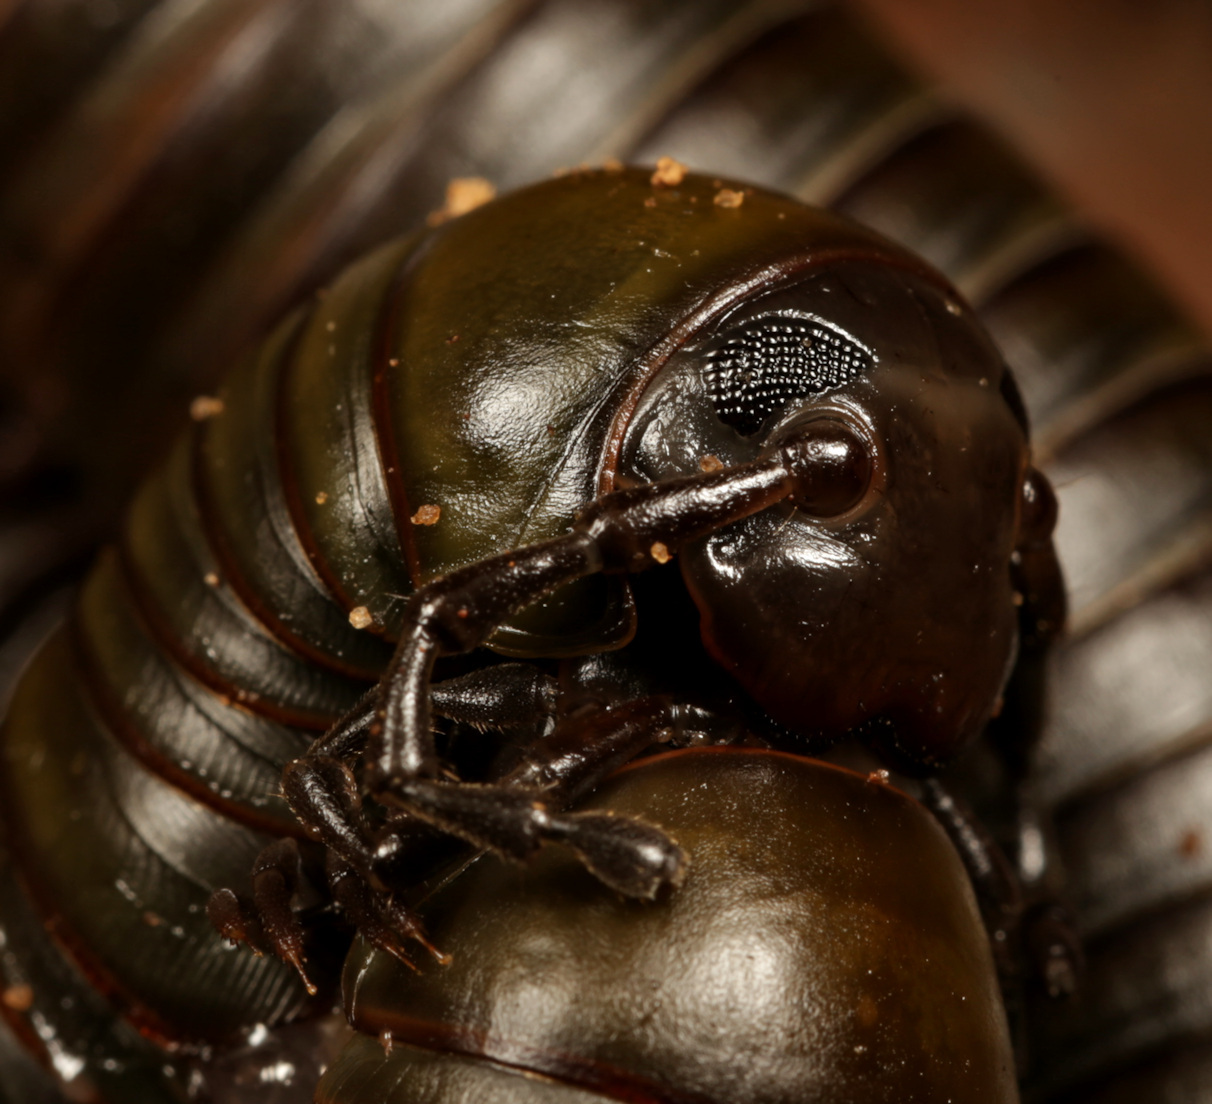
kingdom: Animalia
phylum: Arthropoda
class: Diplopoda
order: Spirostreptida
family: Odontopygidae
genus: Spinotarsus
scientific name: Spinotarsus colosseus
